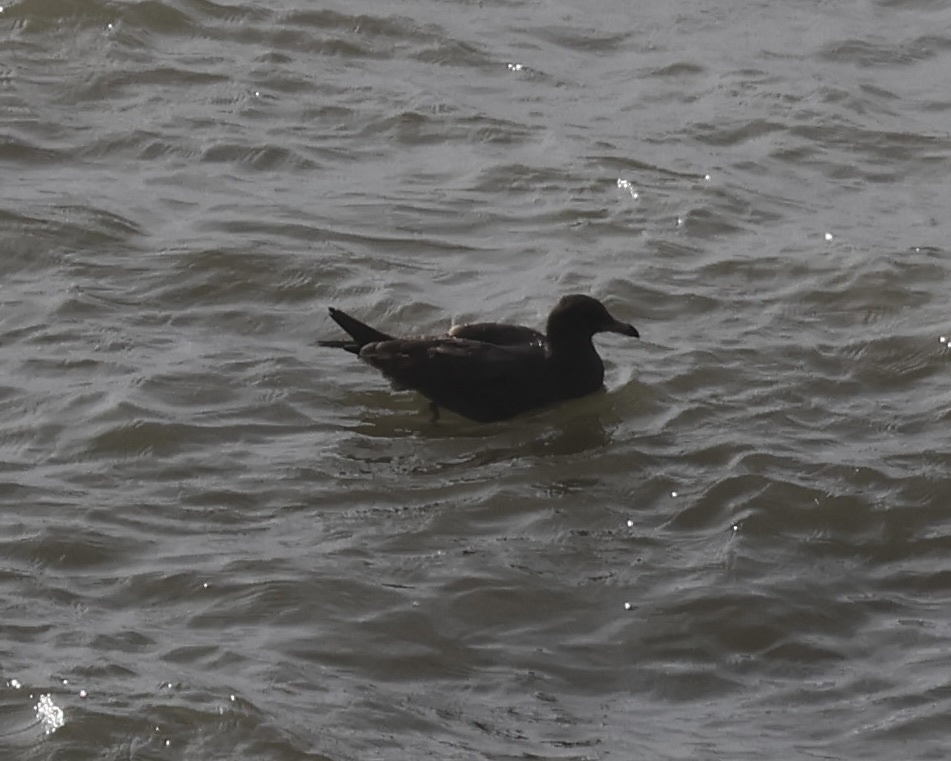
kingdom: Animalia
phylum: Chordata
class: Aves
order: Charadriiformes
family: Laridae
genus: Larus
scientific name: Larus heermanni
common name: Heermann's gull
